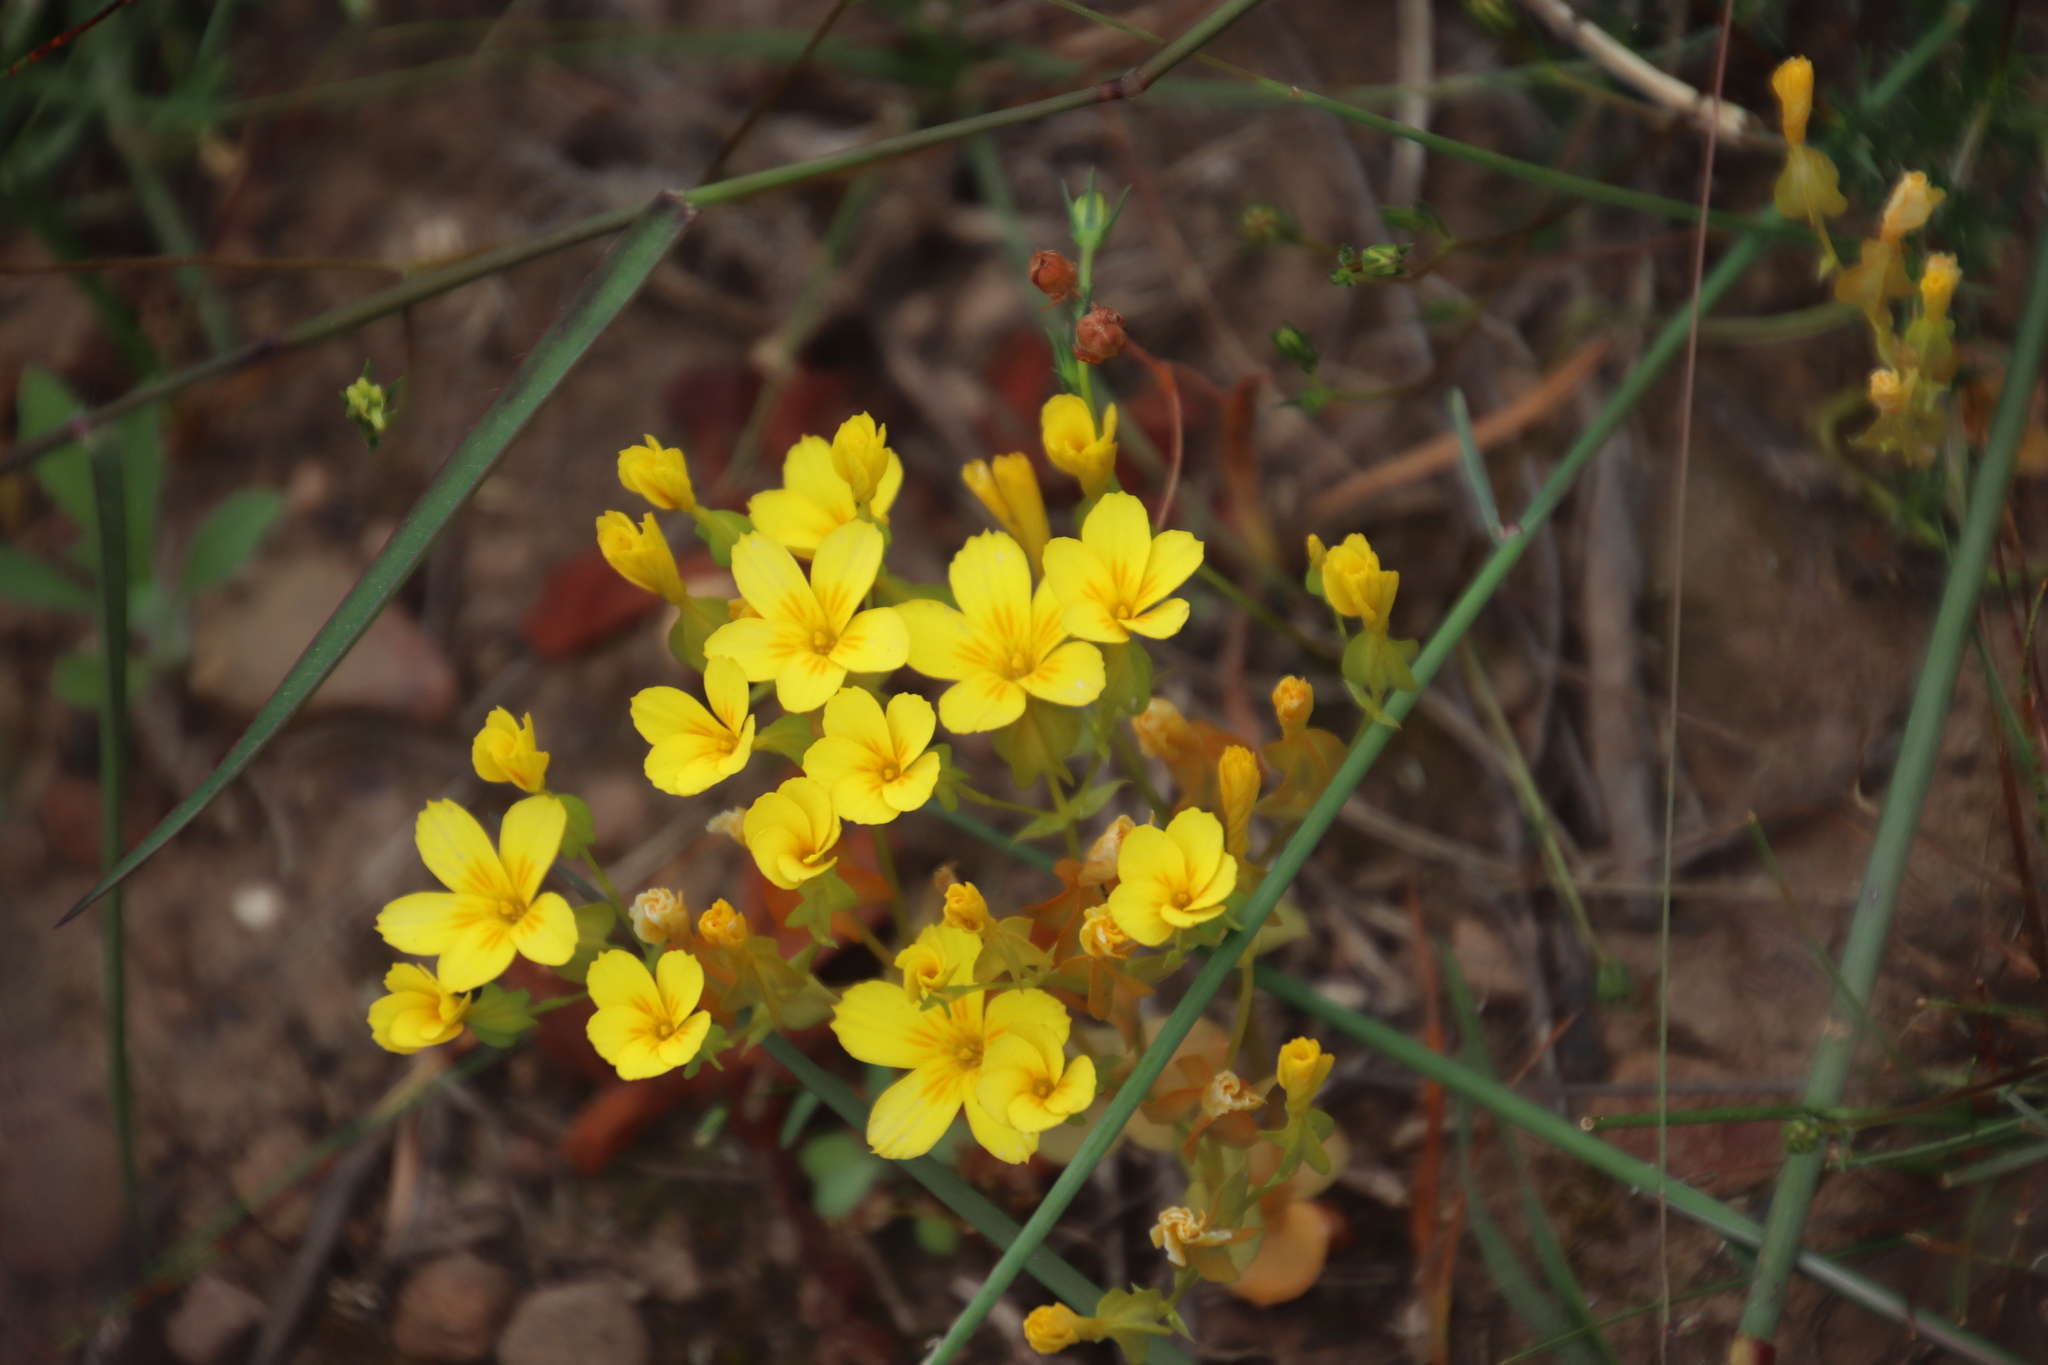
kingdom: Plantae
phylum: Tracheophyta
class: Magnoliopsida
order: Gentianales
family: Gentianaceae
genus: Sebaea
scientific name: Sebaea solaris
